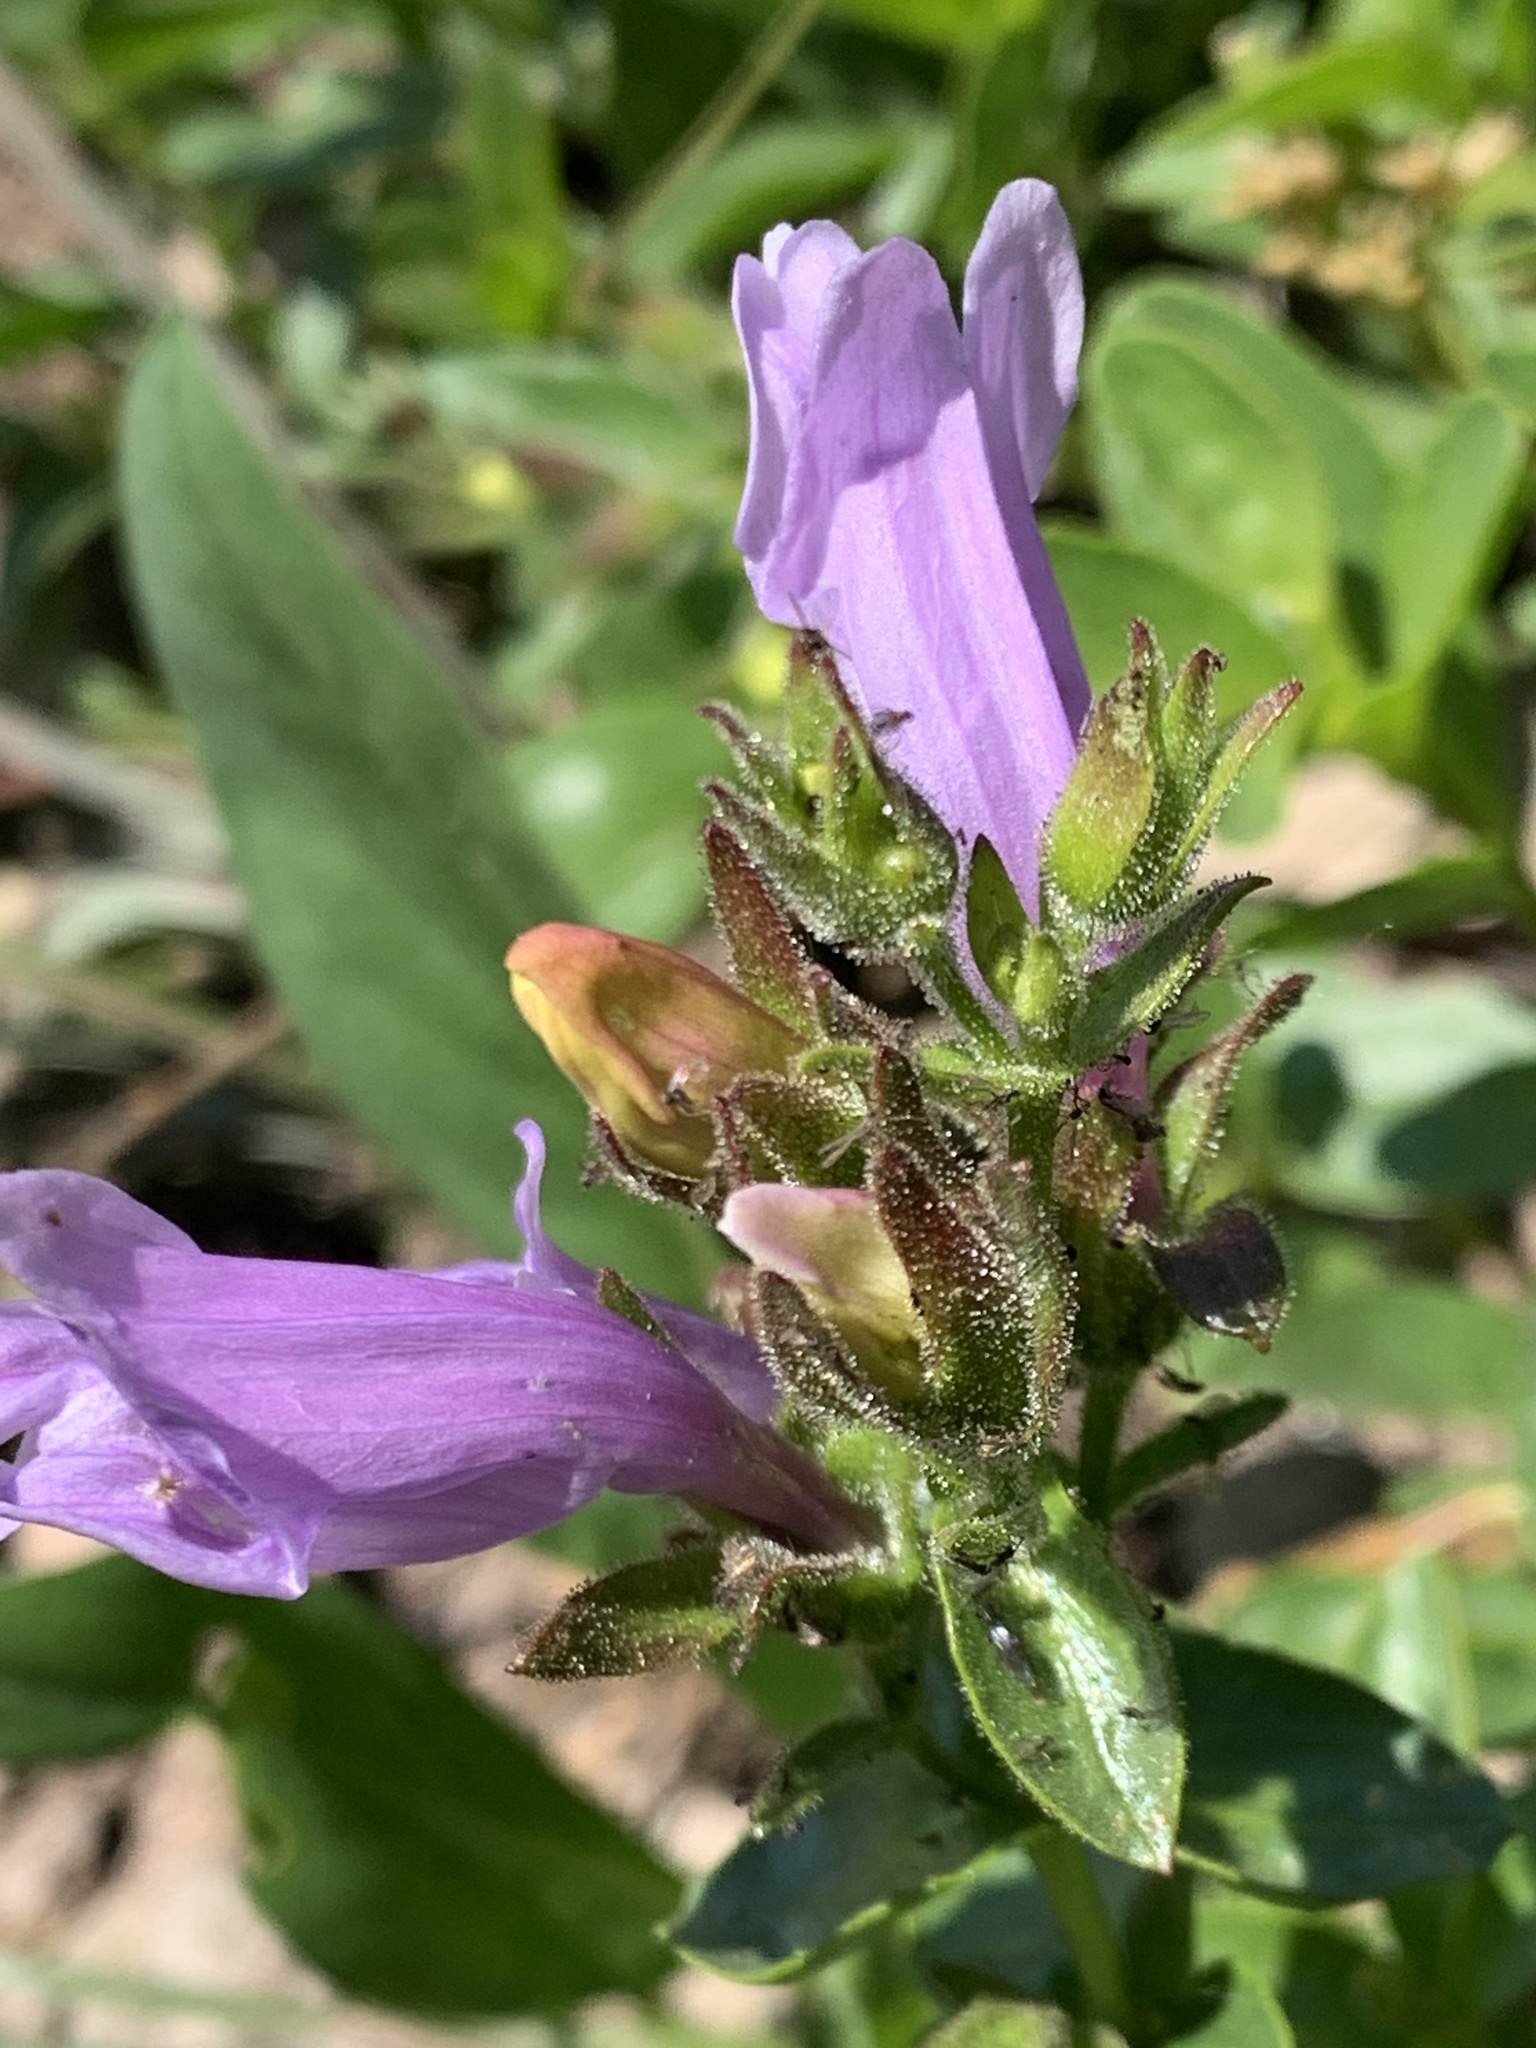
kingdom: Plantae
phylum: Tracheophyta
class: Magnoliopsida
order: Lamiales
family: Plantaginaceae
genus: Penstemon
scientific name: Penstemon ellipticus
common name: Alpine beardtongue
